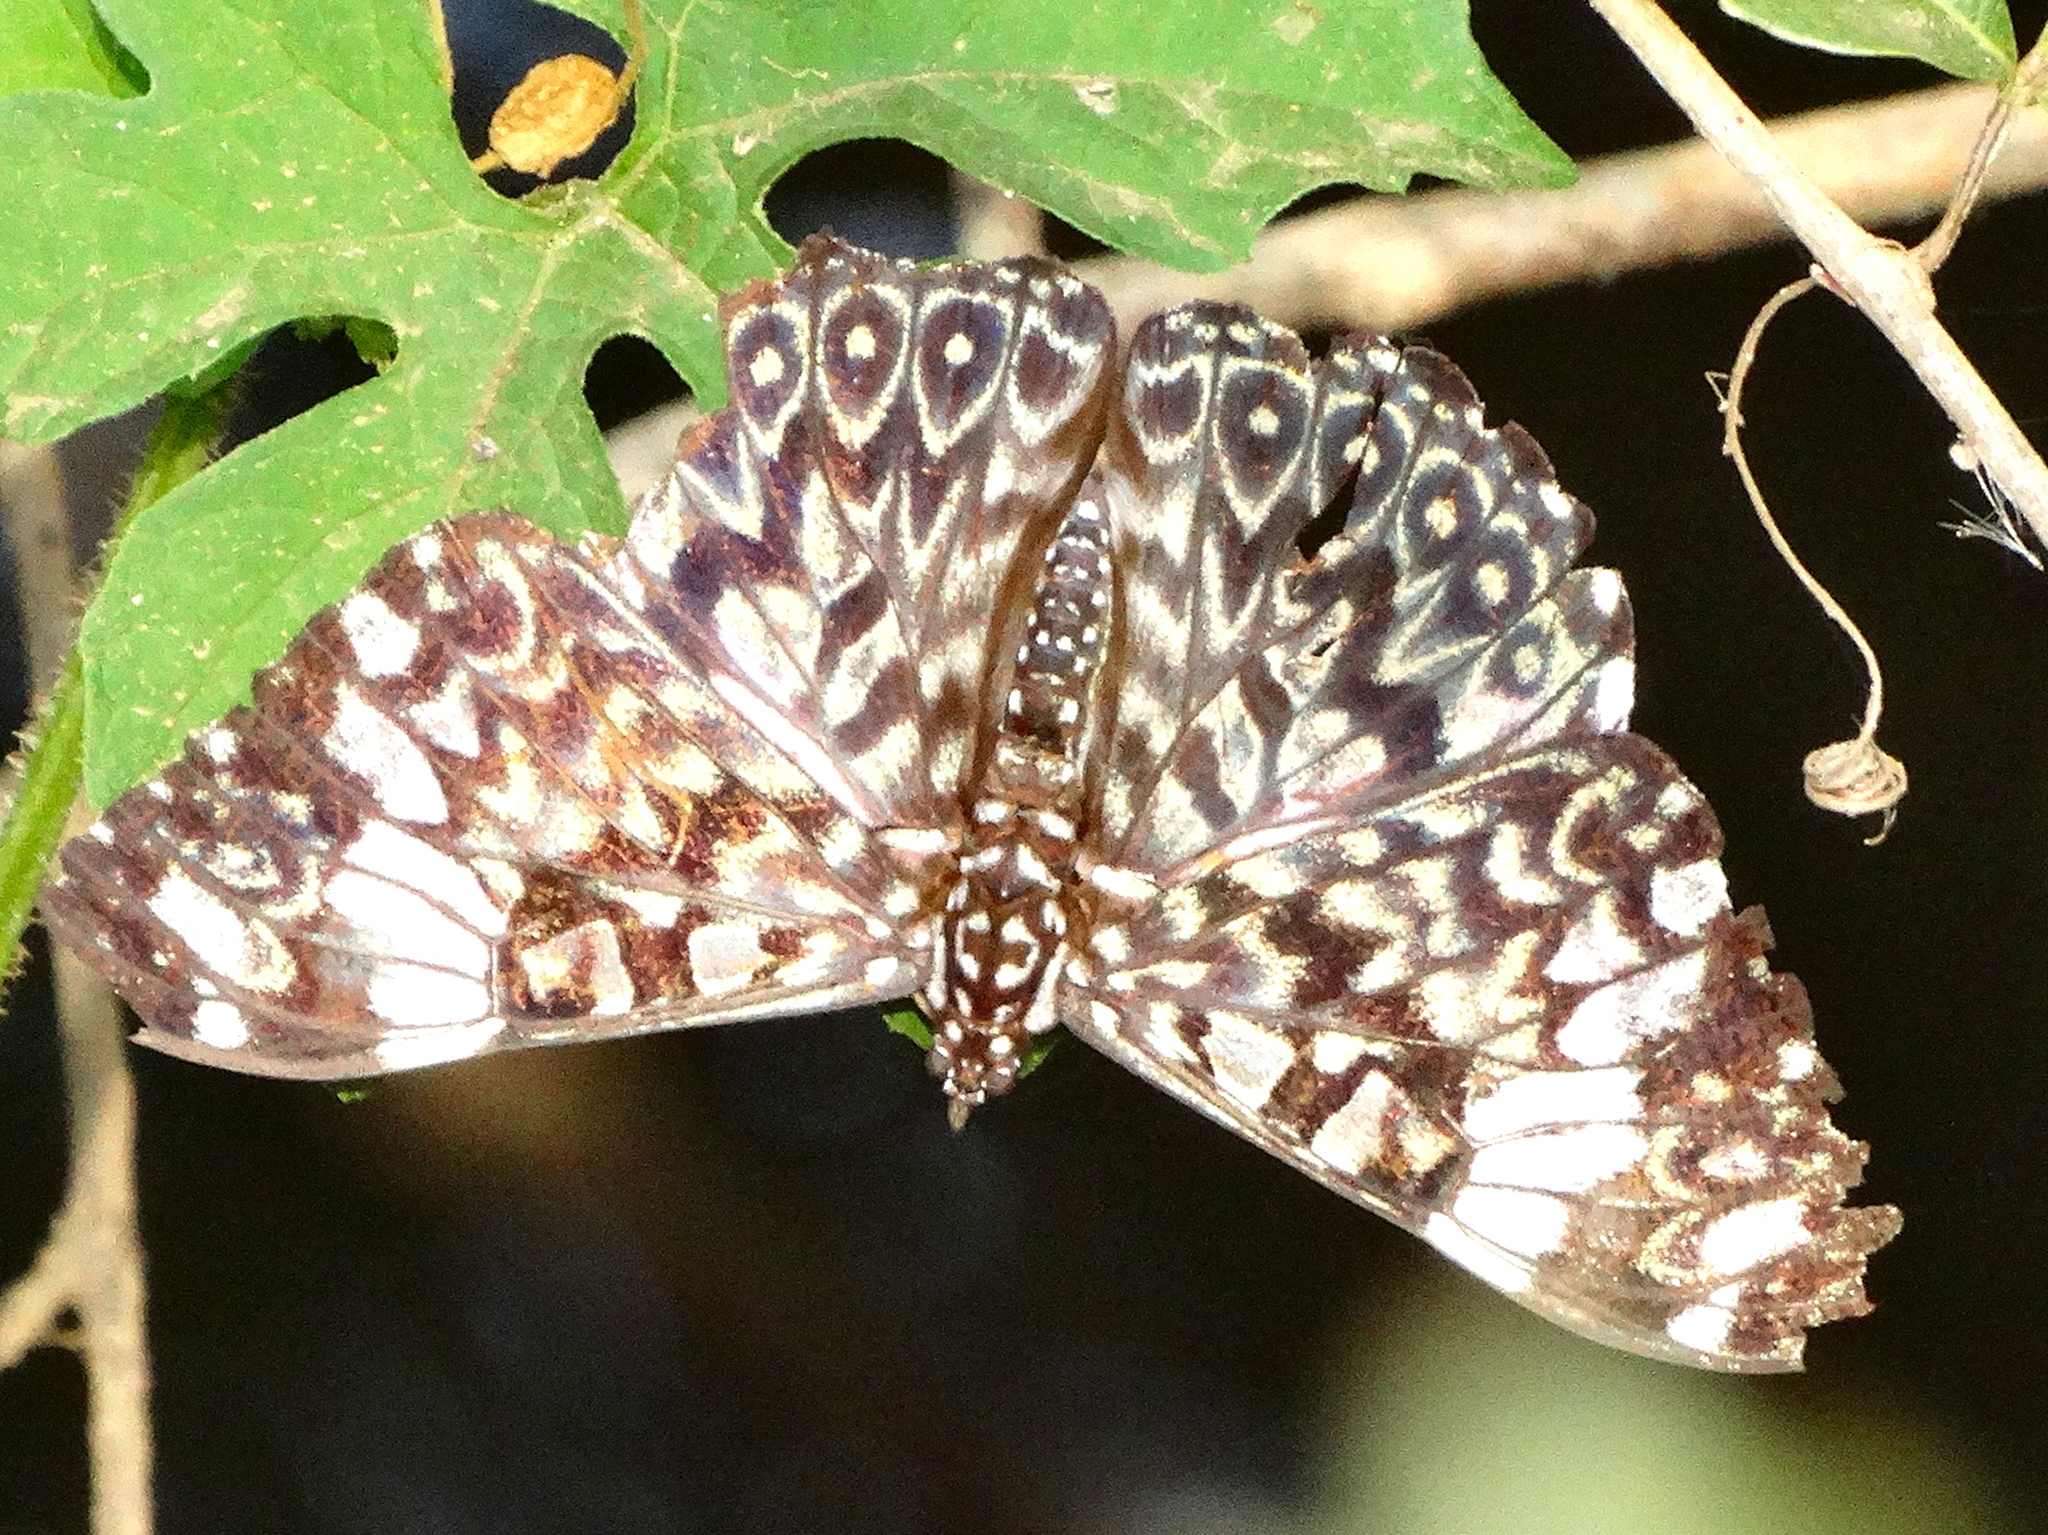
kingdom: Animalia
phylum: Arthropoda
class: Insecta
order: Lepidoptera
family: Nymphalidae
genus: Hamadryas
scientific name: Hamadryas amphinome
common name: Red cracker
